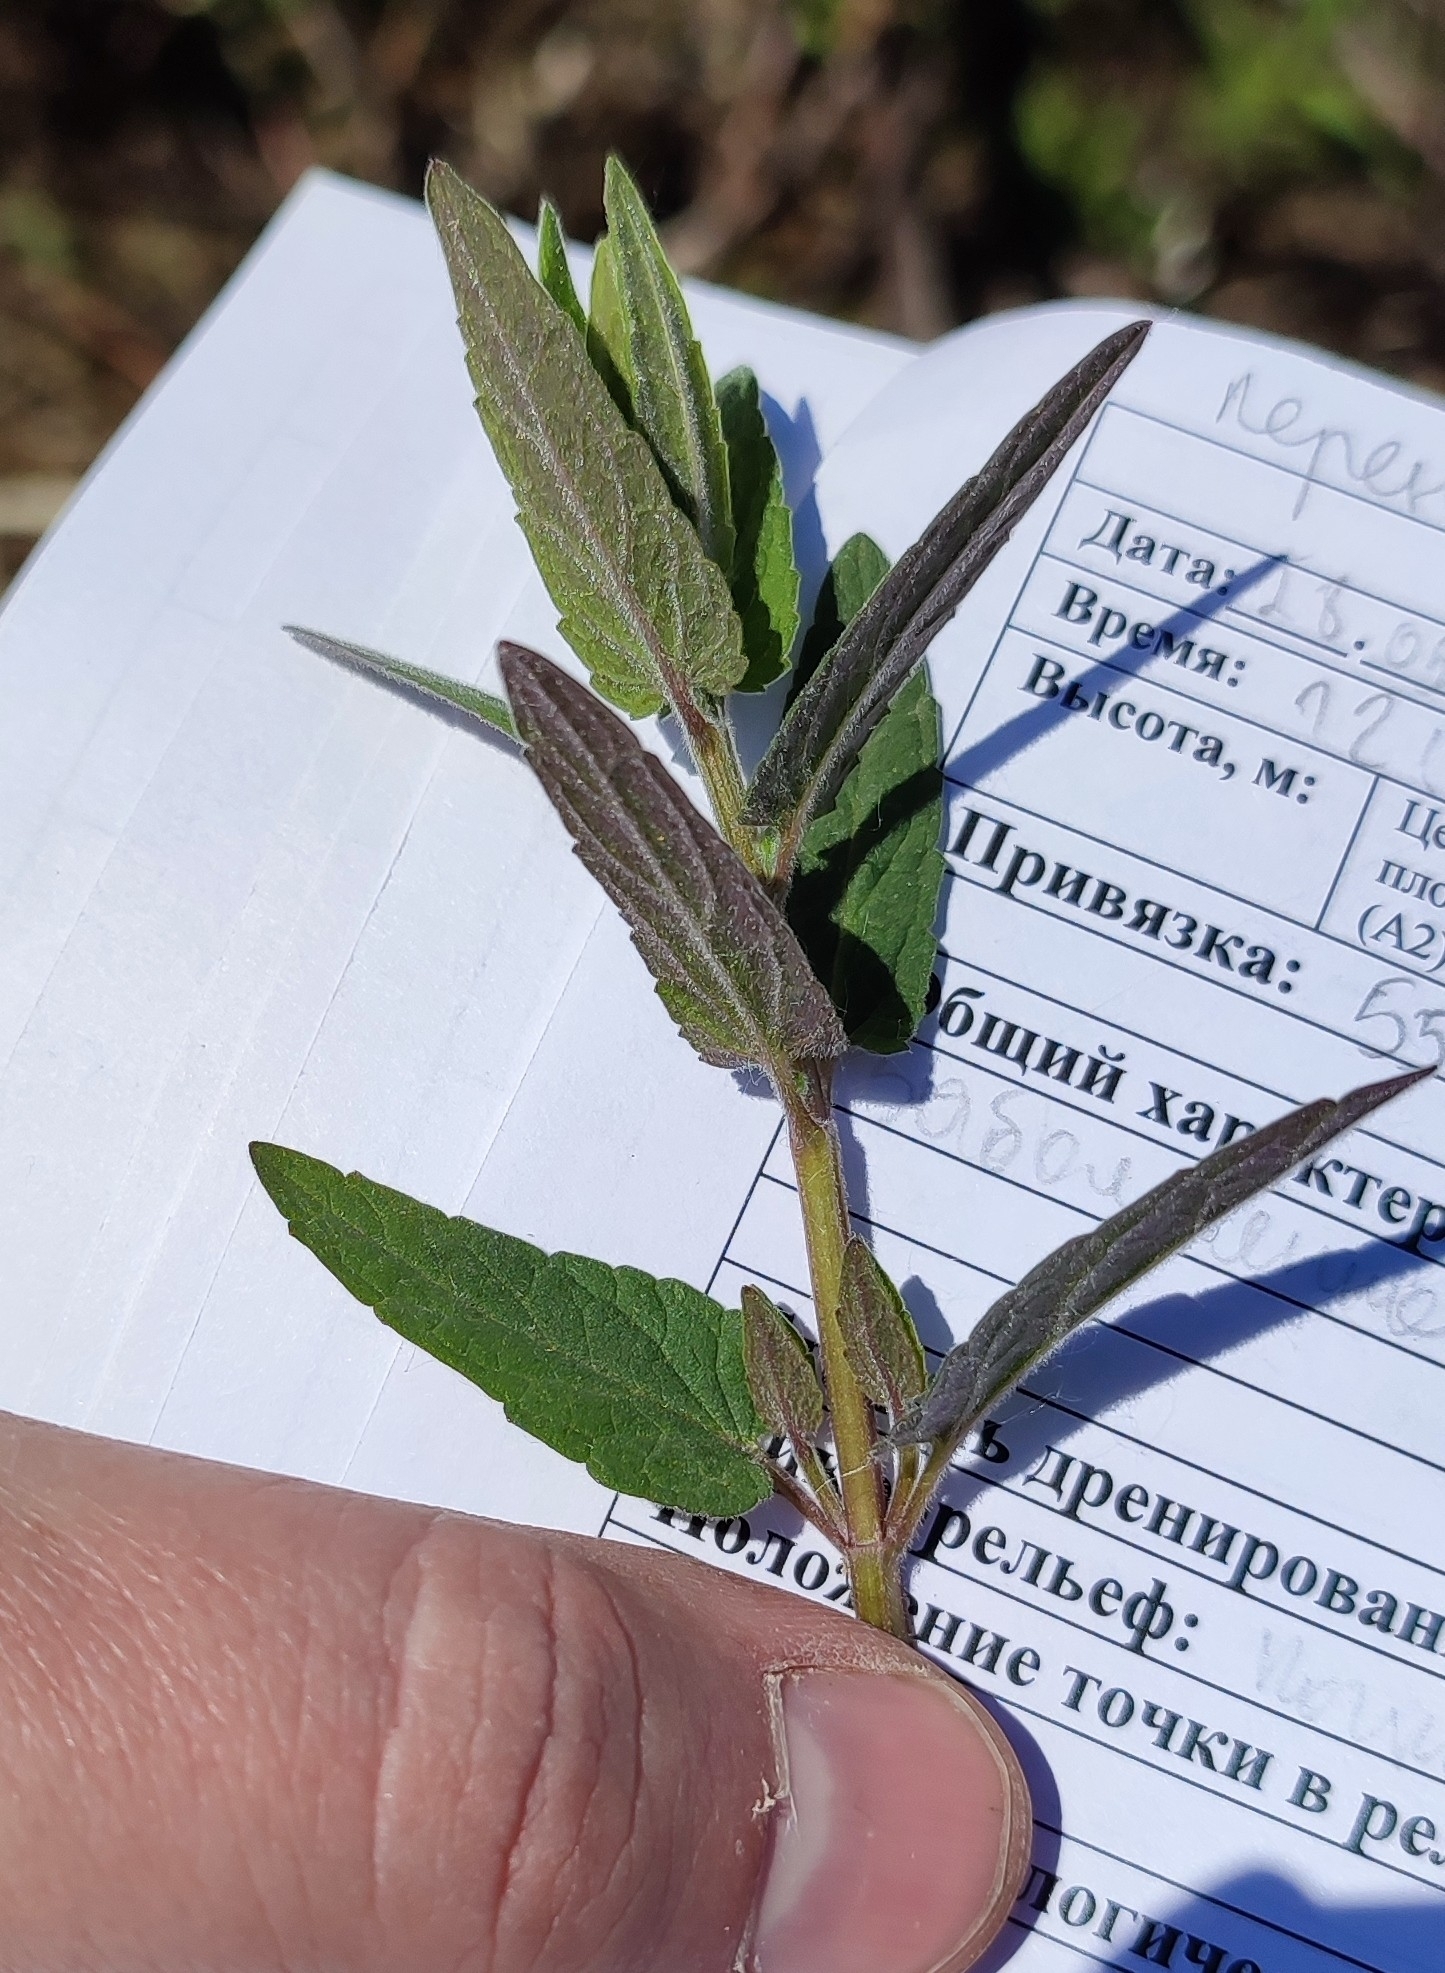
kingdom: Plantae
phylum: Tracheophyta
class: Magnoliopsida
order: Lamiales
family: Lamiaceae
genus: Scutellaria
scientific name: Scutellaria galericulata
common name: Skullcap
